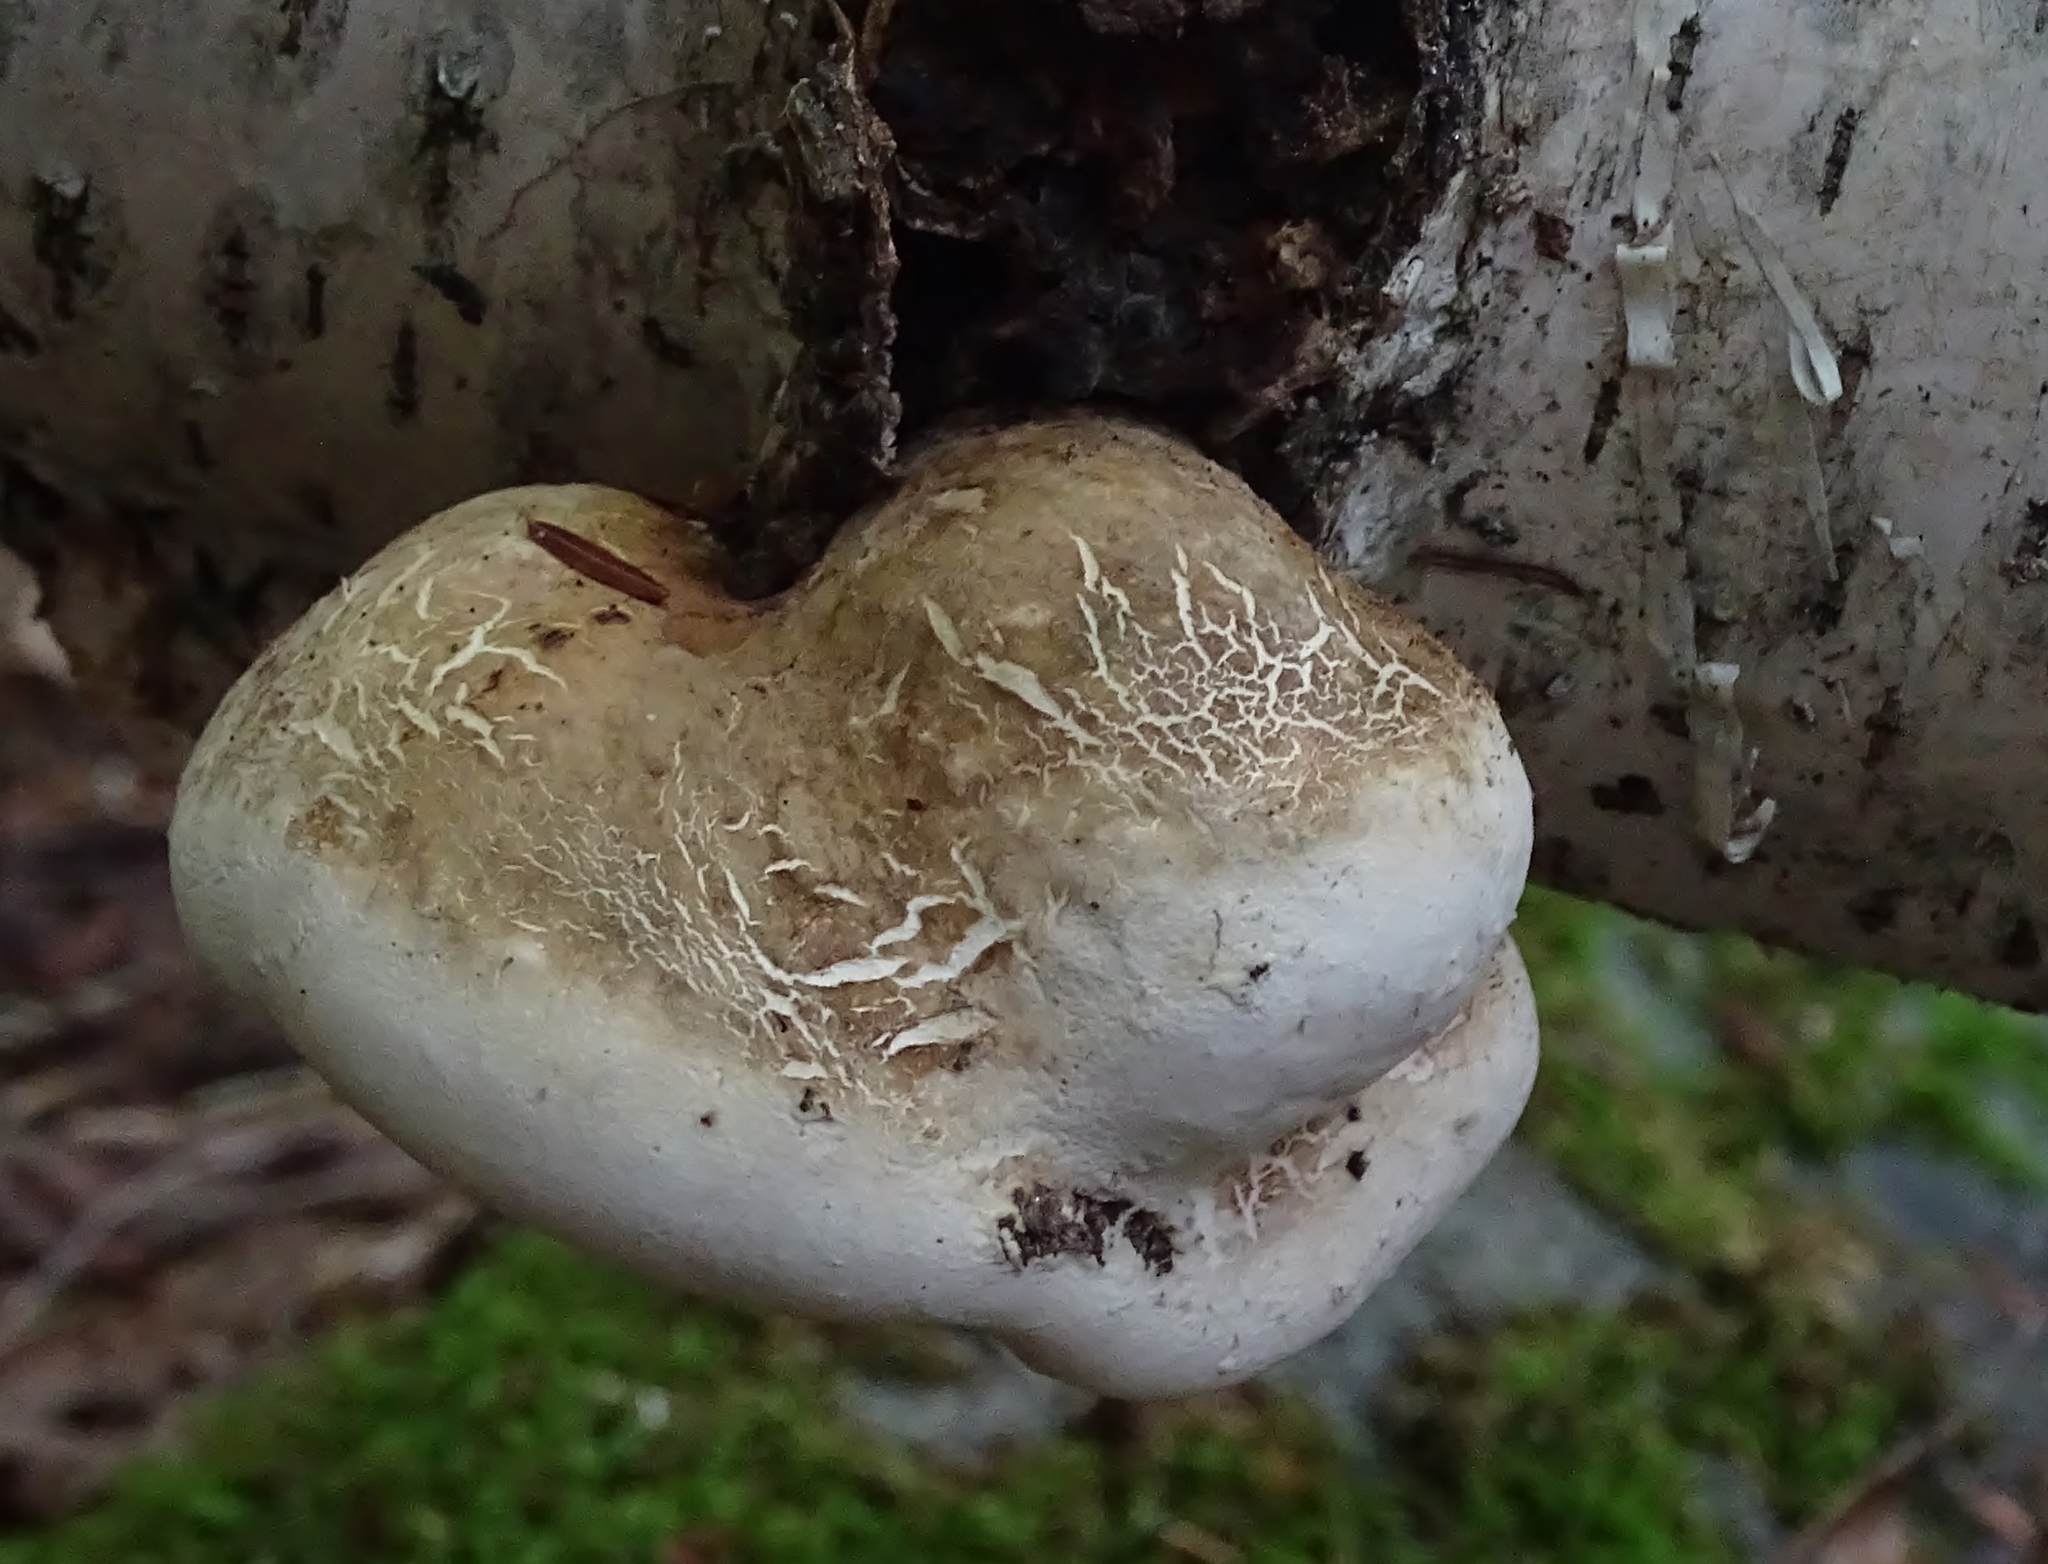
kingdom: Fungi
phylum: Basidiomycota
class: Agaricomycetes
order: Polyporales
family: Fomitopsidaceae
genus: Fomitopsis
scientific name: Fomitopsis betulina
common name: Birch polypore
